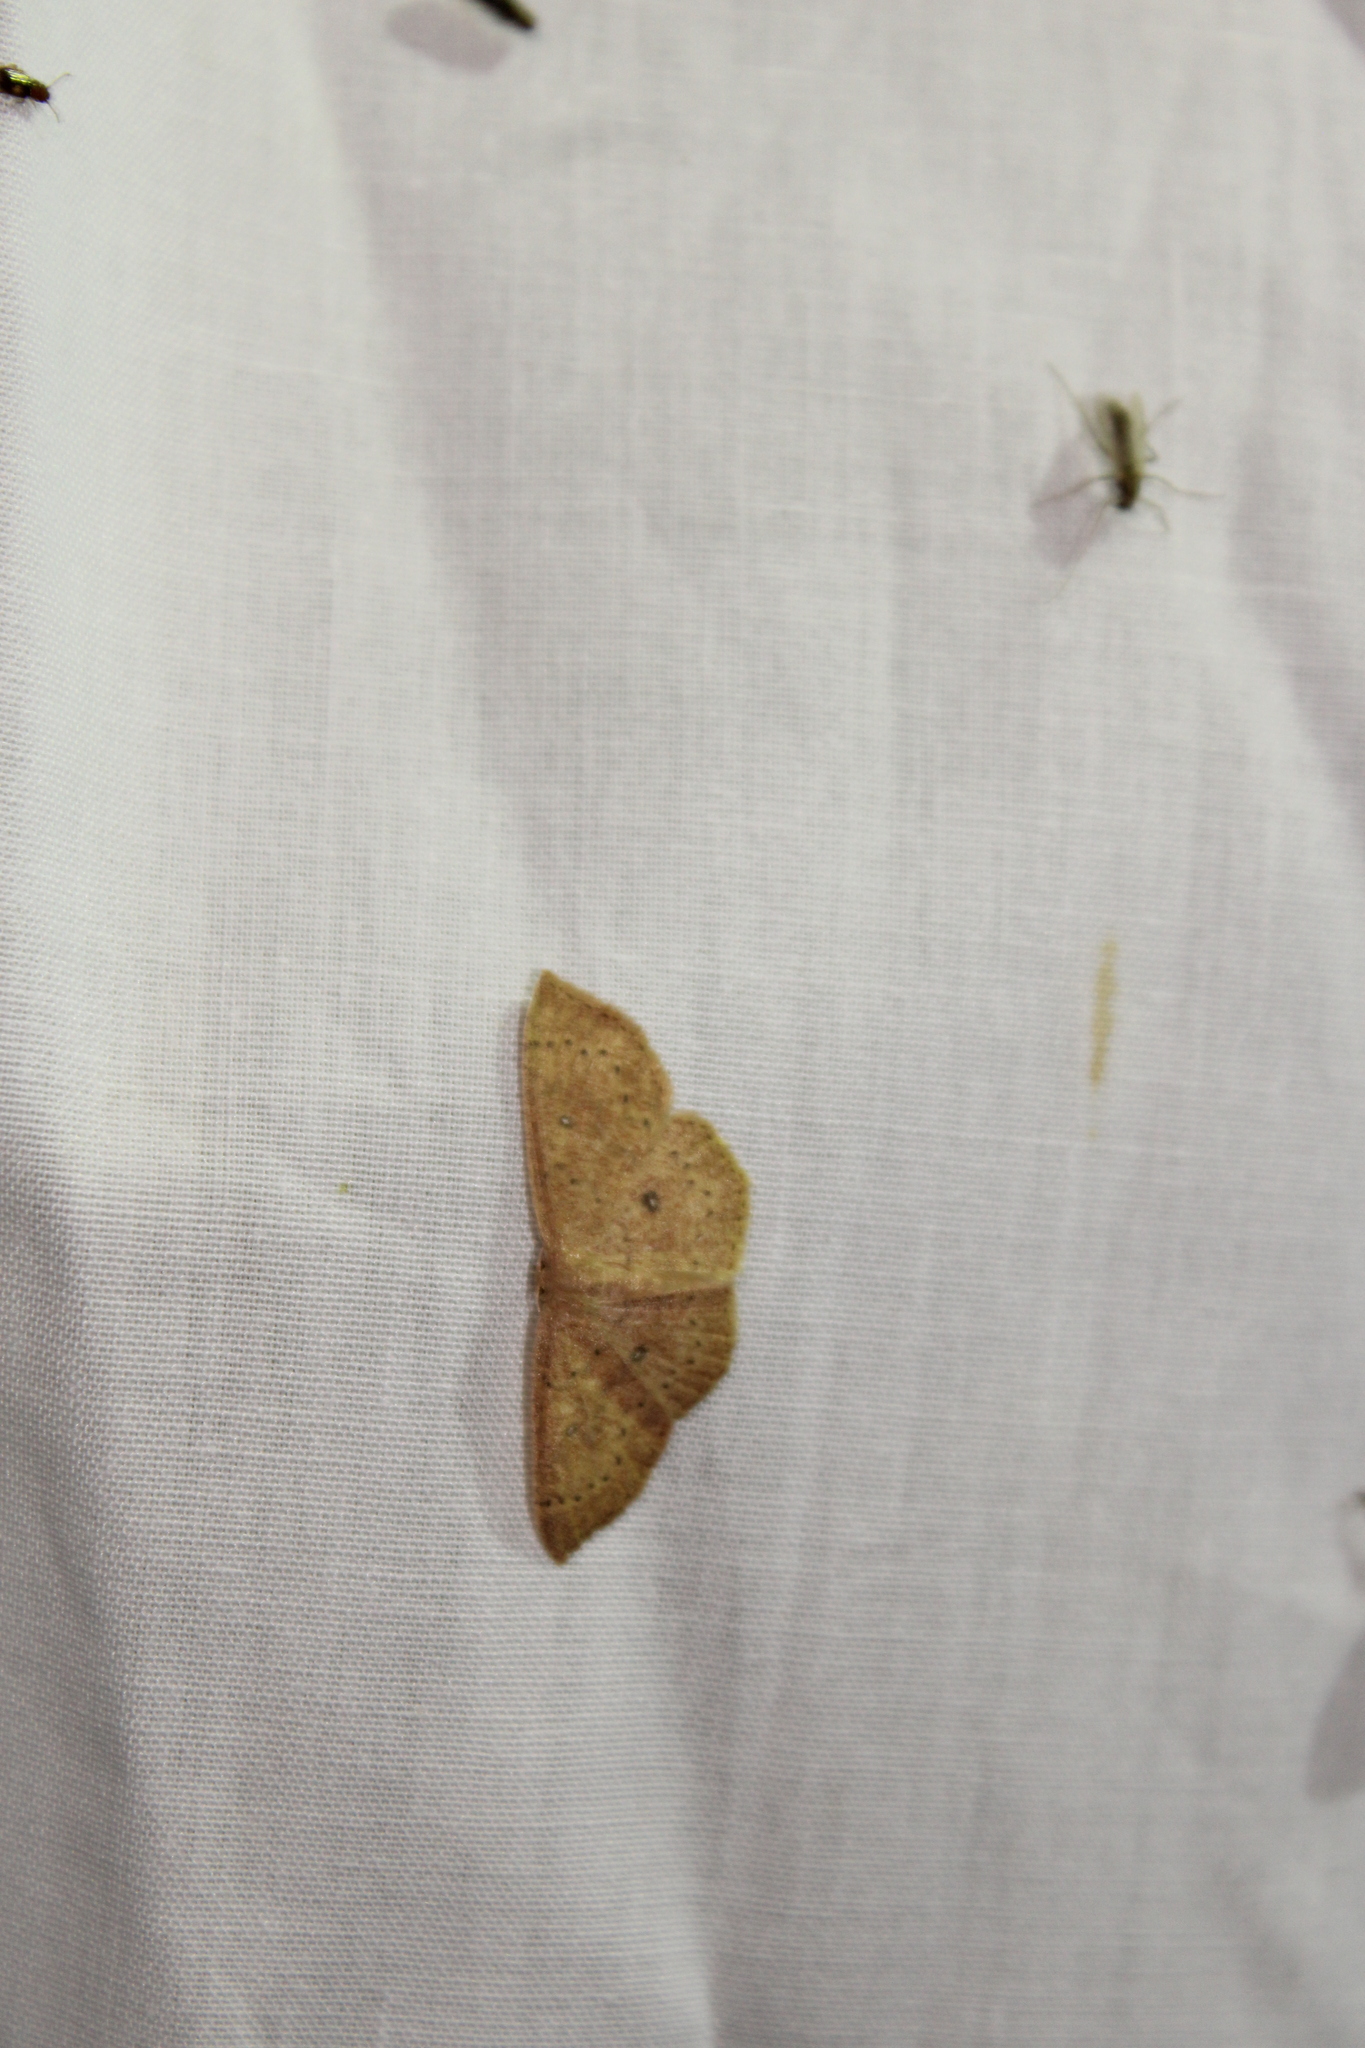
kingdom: Animalia
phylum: Arthropoda
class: Insecta
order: Lepidoptera
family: Geometridae
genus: Cyclophora
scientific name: Cyclophora packardi
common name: Packard's wave
